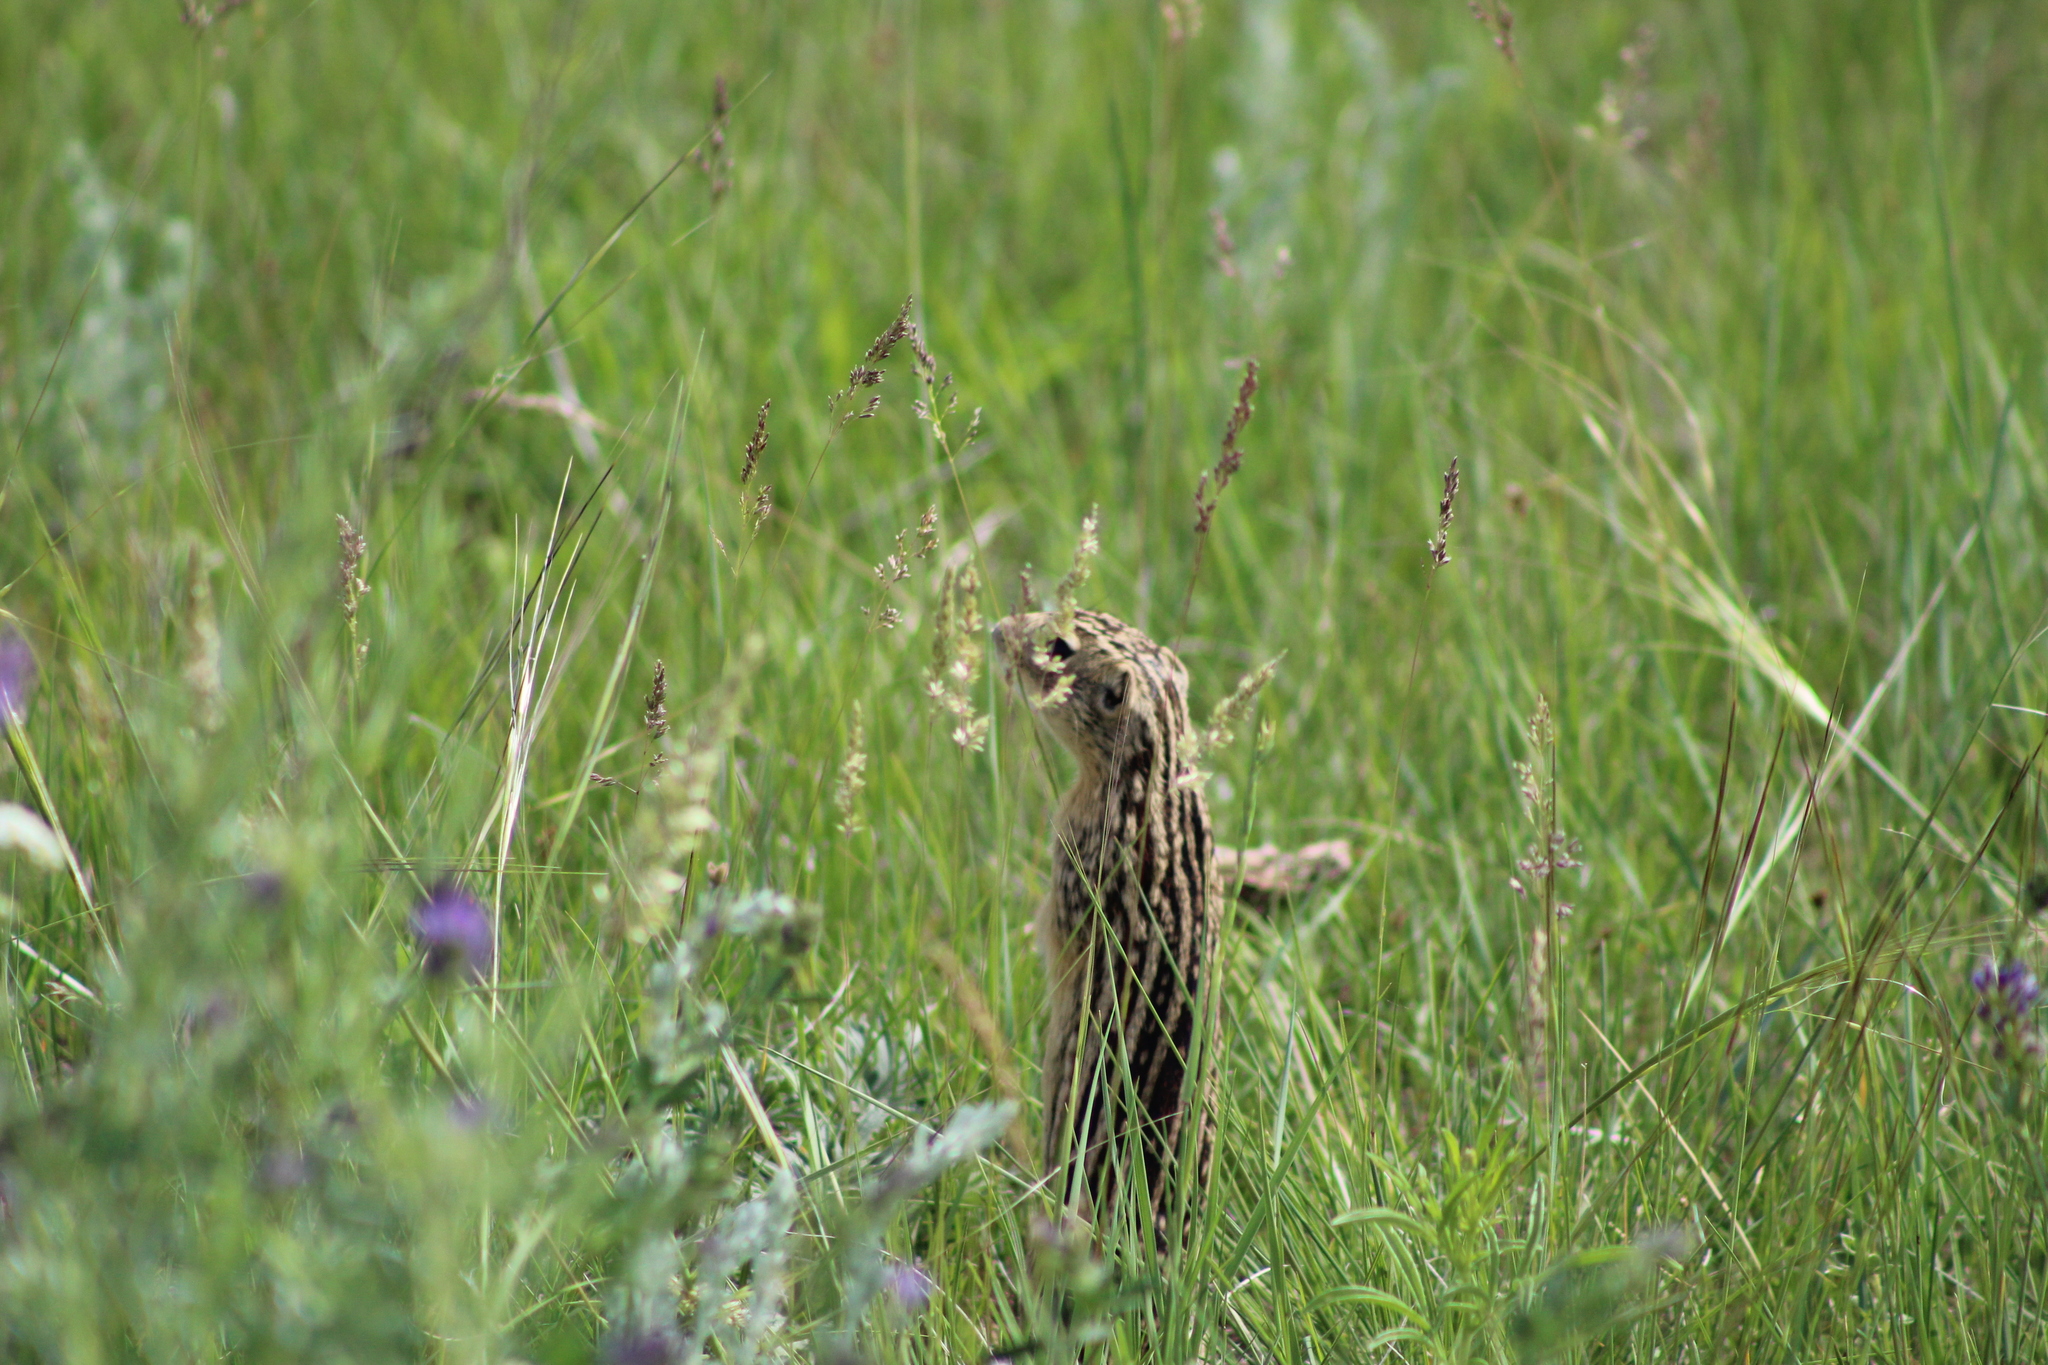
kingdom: Animalia
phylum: Chordata
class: Mammalia
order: Rodentia
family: Sciuridae
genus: Ictidomys
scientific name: Ictidomys tridecemlineatus
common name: Thirteen-lined ground squirrel
